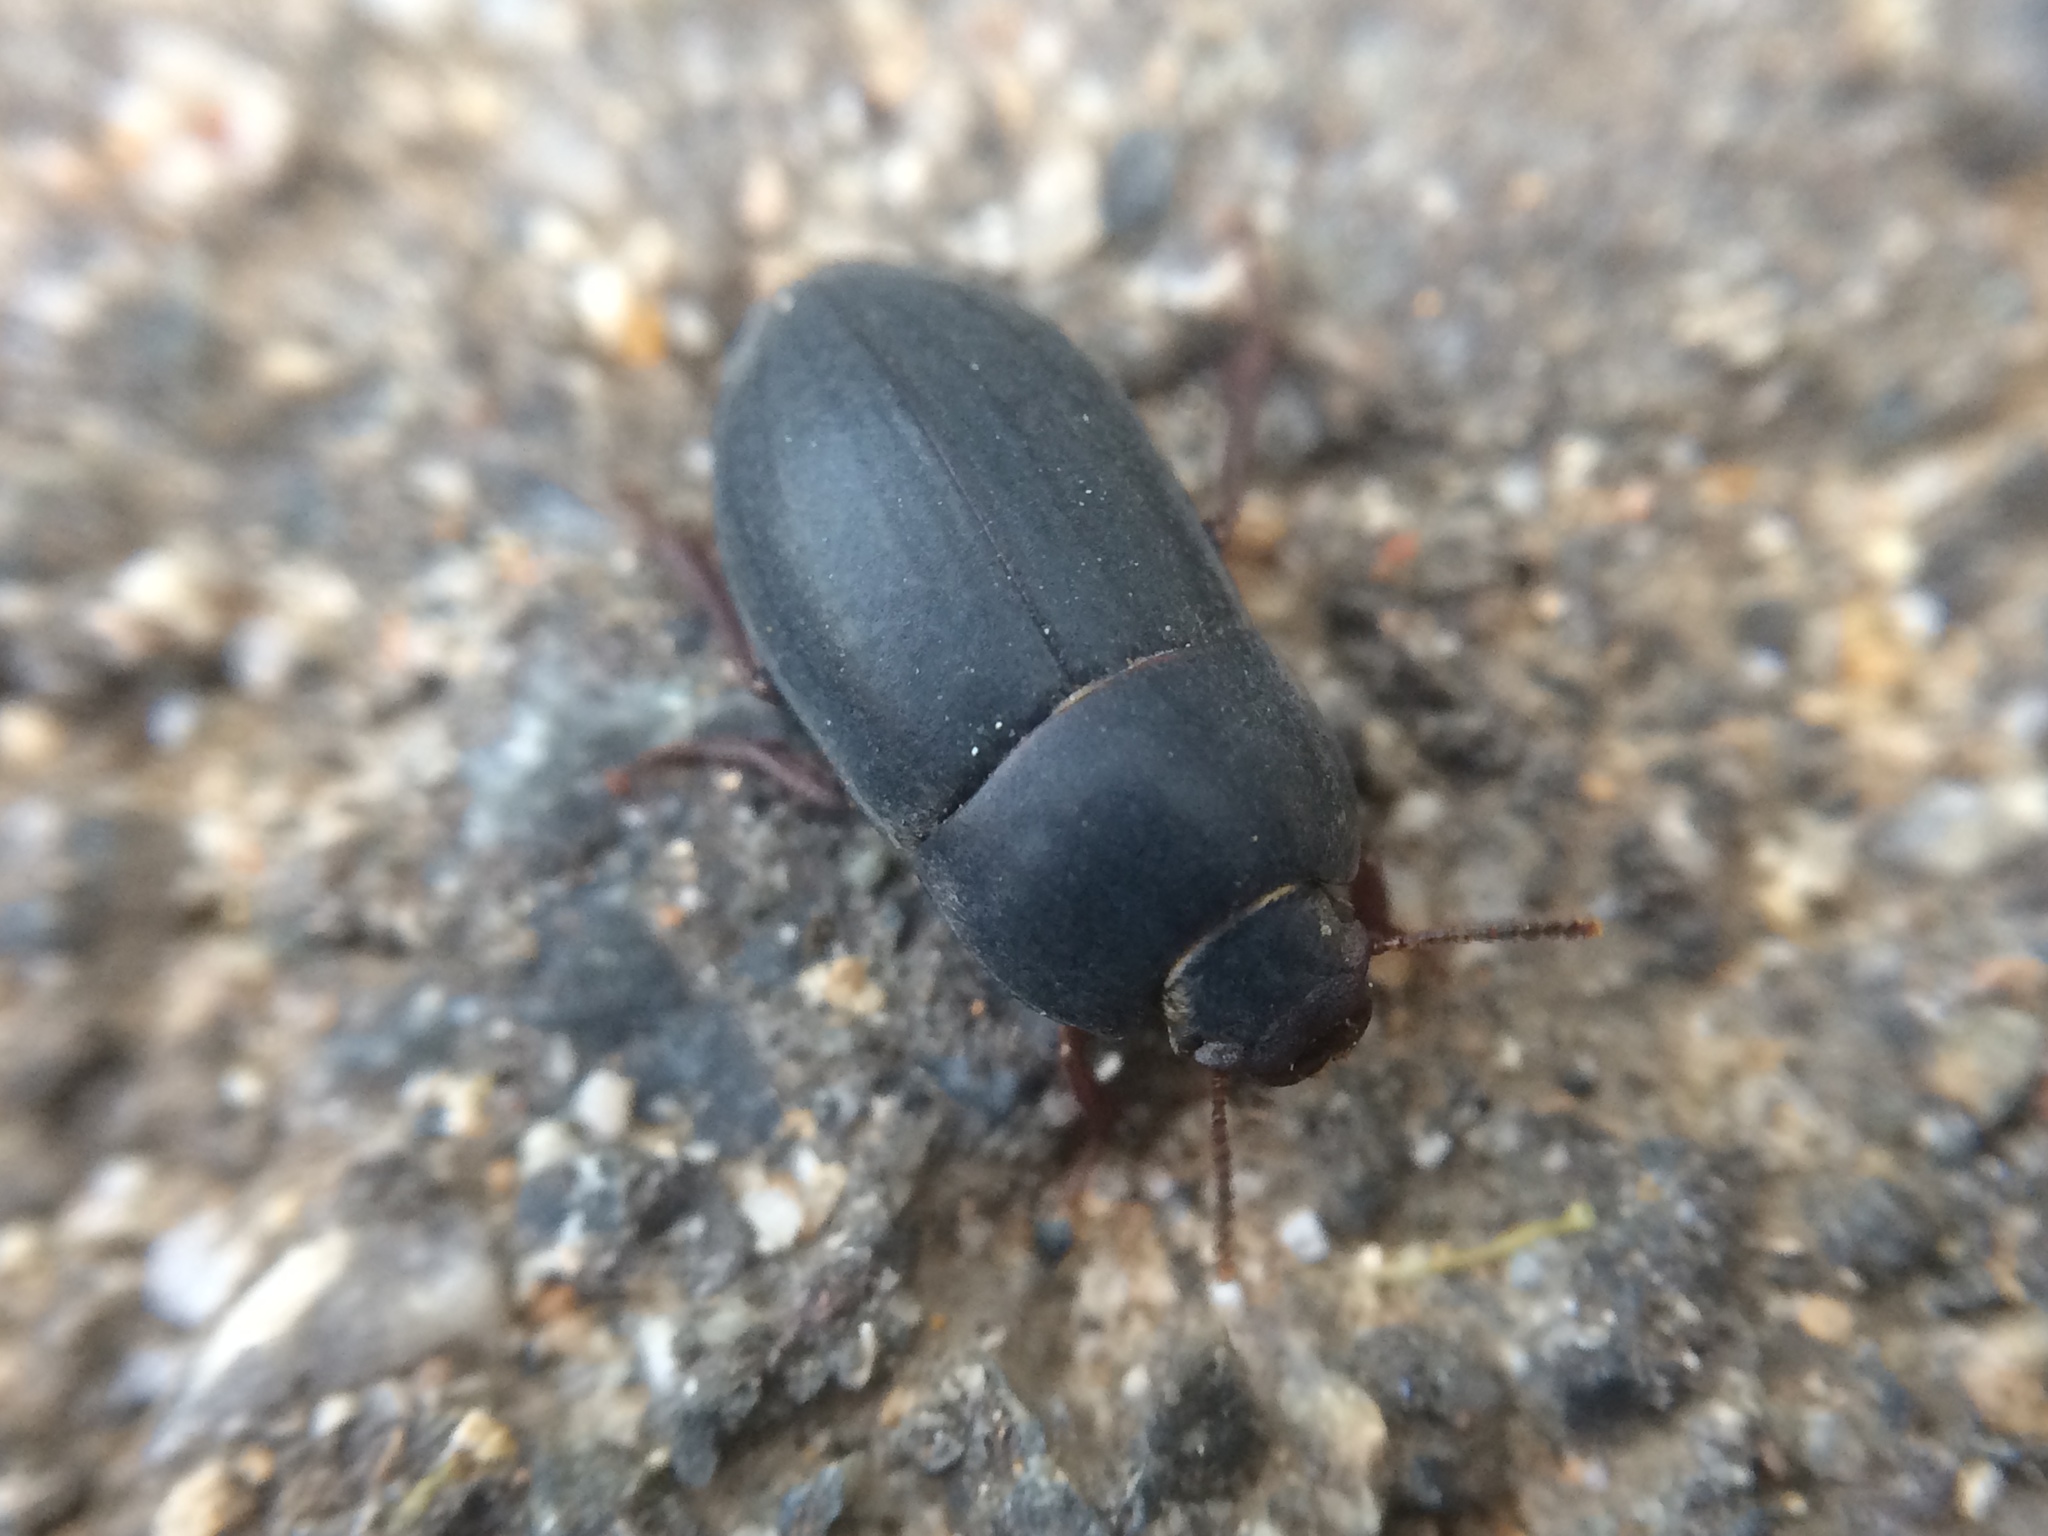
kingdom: Animalia
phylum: Arthropoda
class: Insecta
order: Coleoptera
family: Tenebrionidae
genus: Coniontis
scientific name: Coniontis
